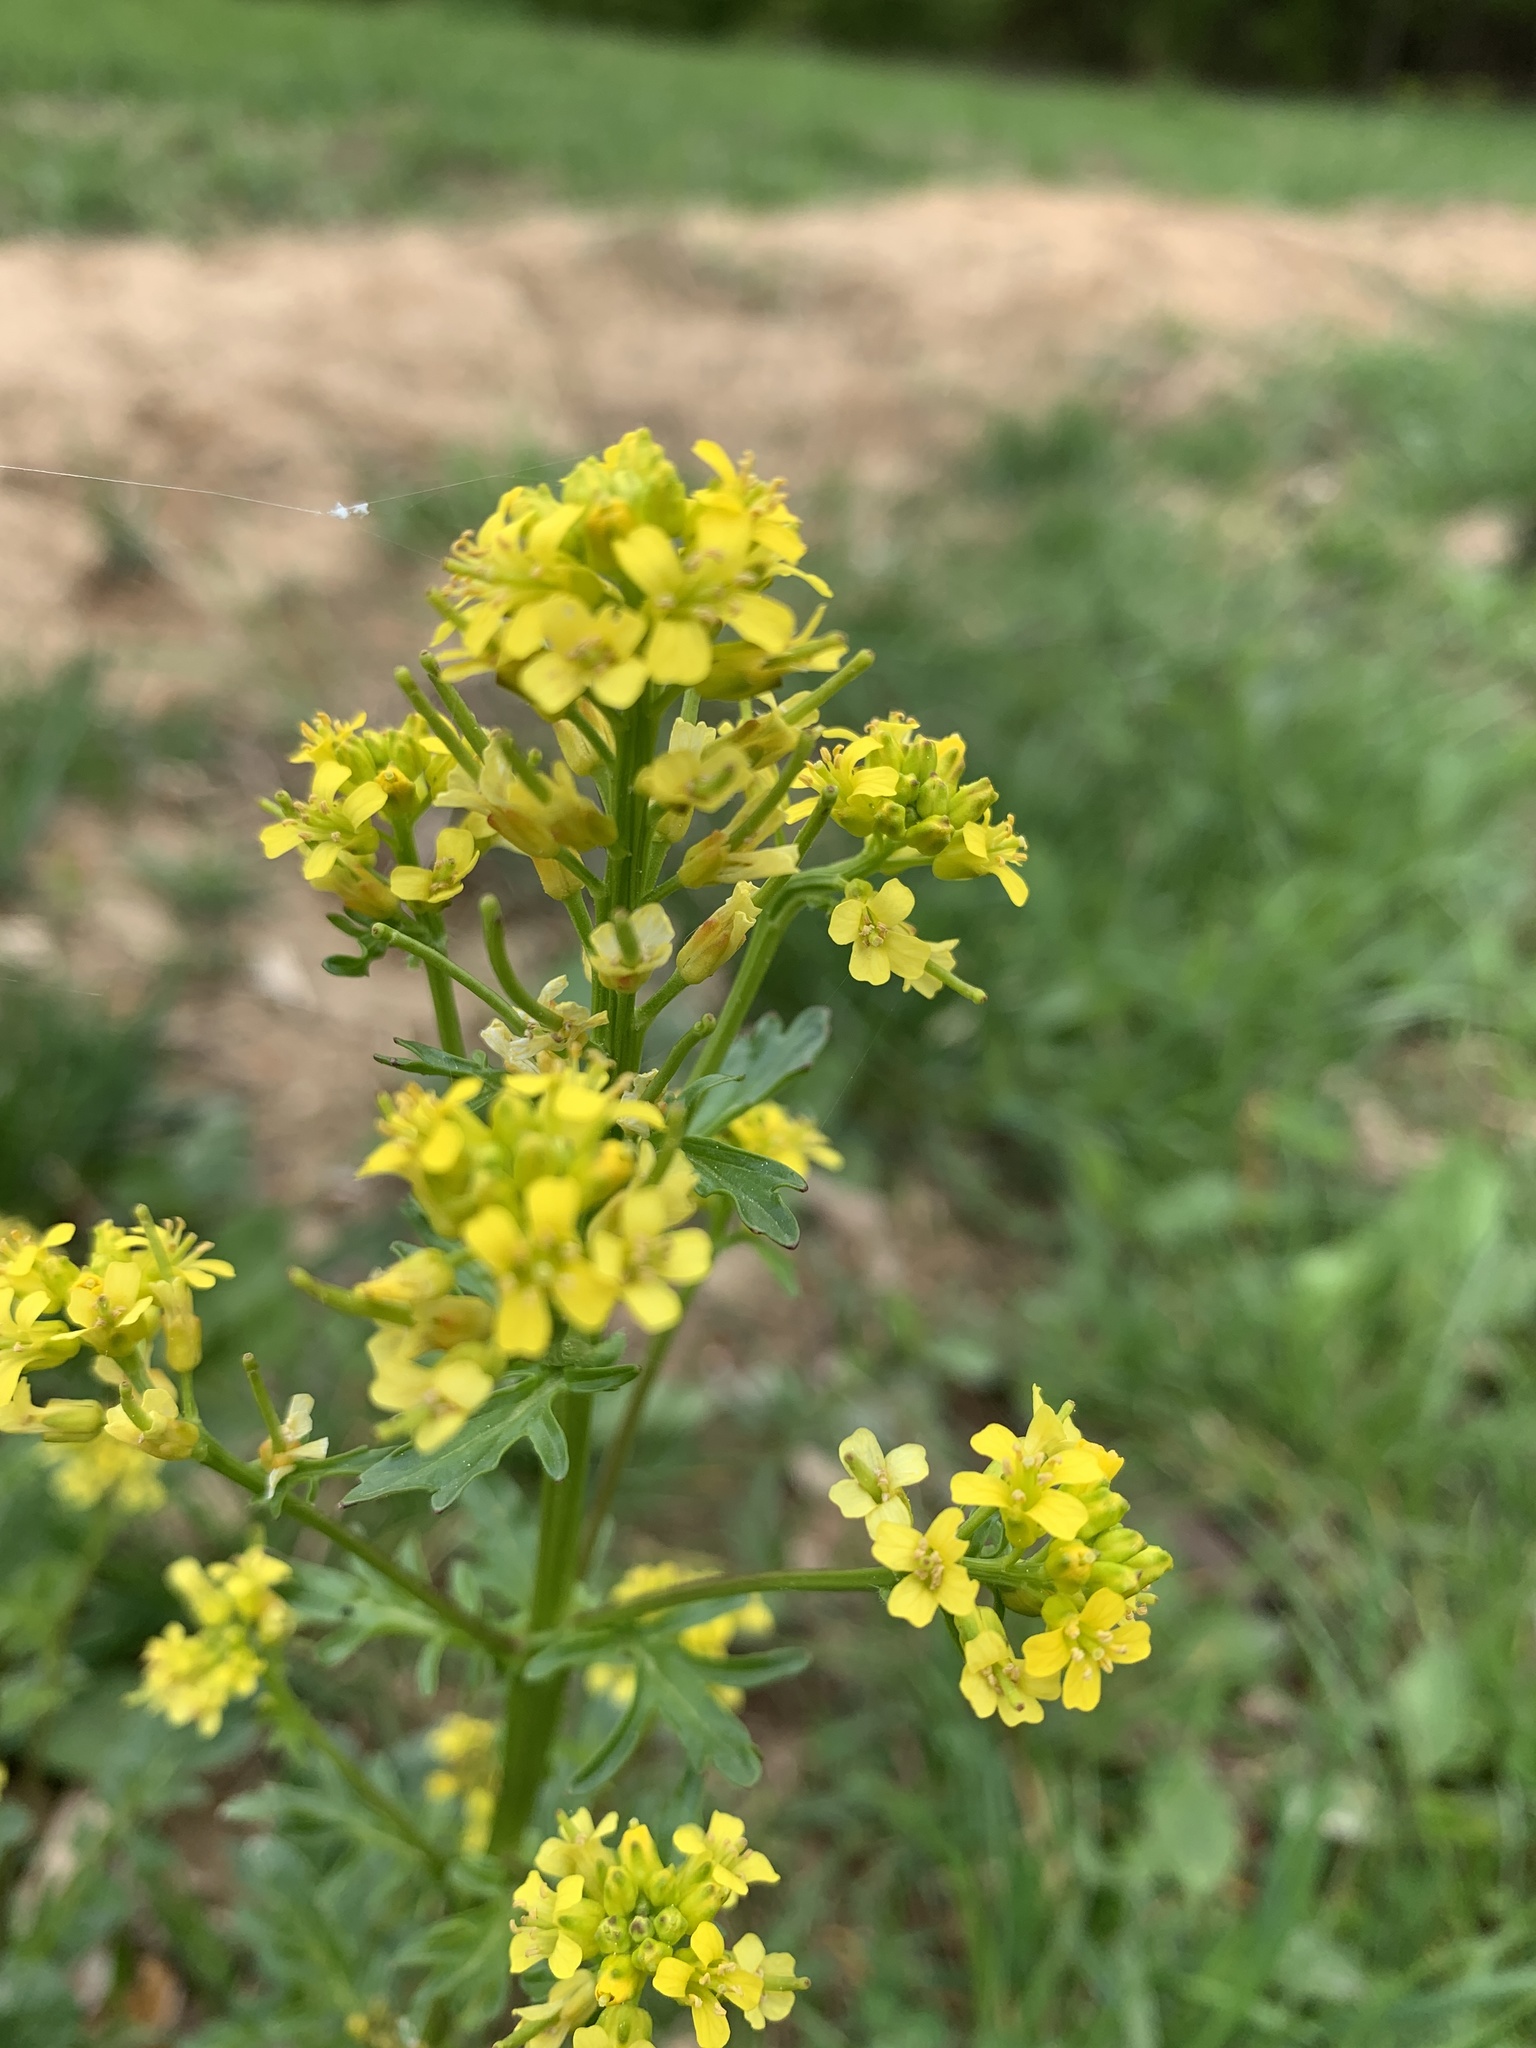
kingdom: Plantae
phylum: Tracheophyta
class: Magnoliopsida
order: Brassicales
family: Brassicaceae
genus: Barbarea
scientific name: Barbarea vulgaris
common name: Cressy-greens
